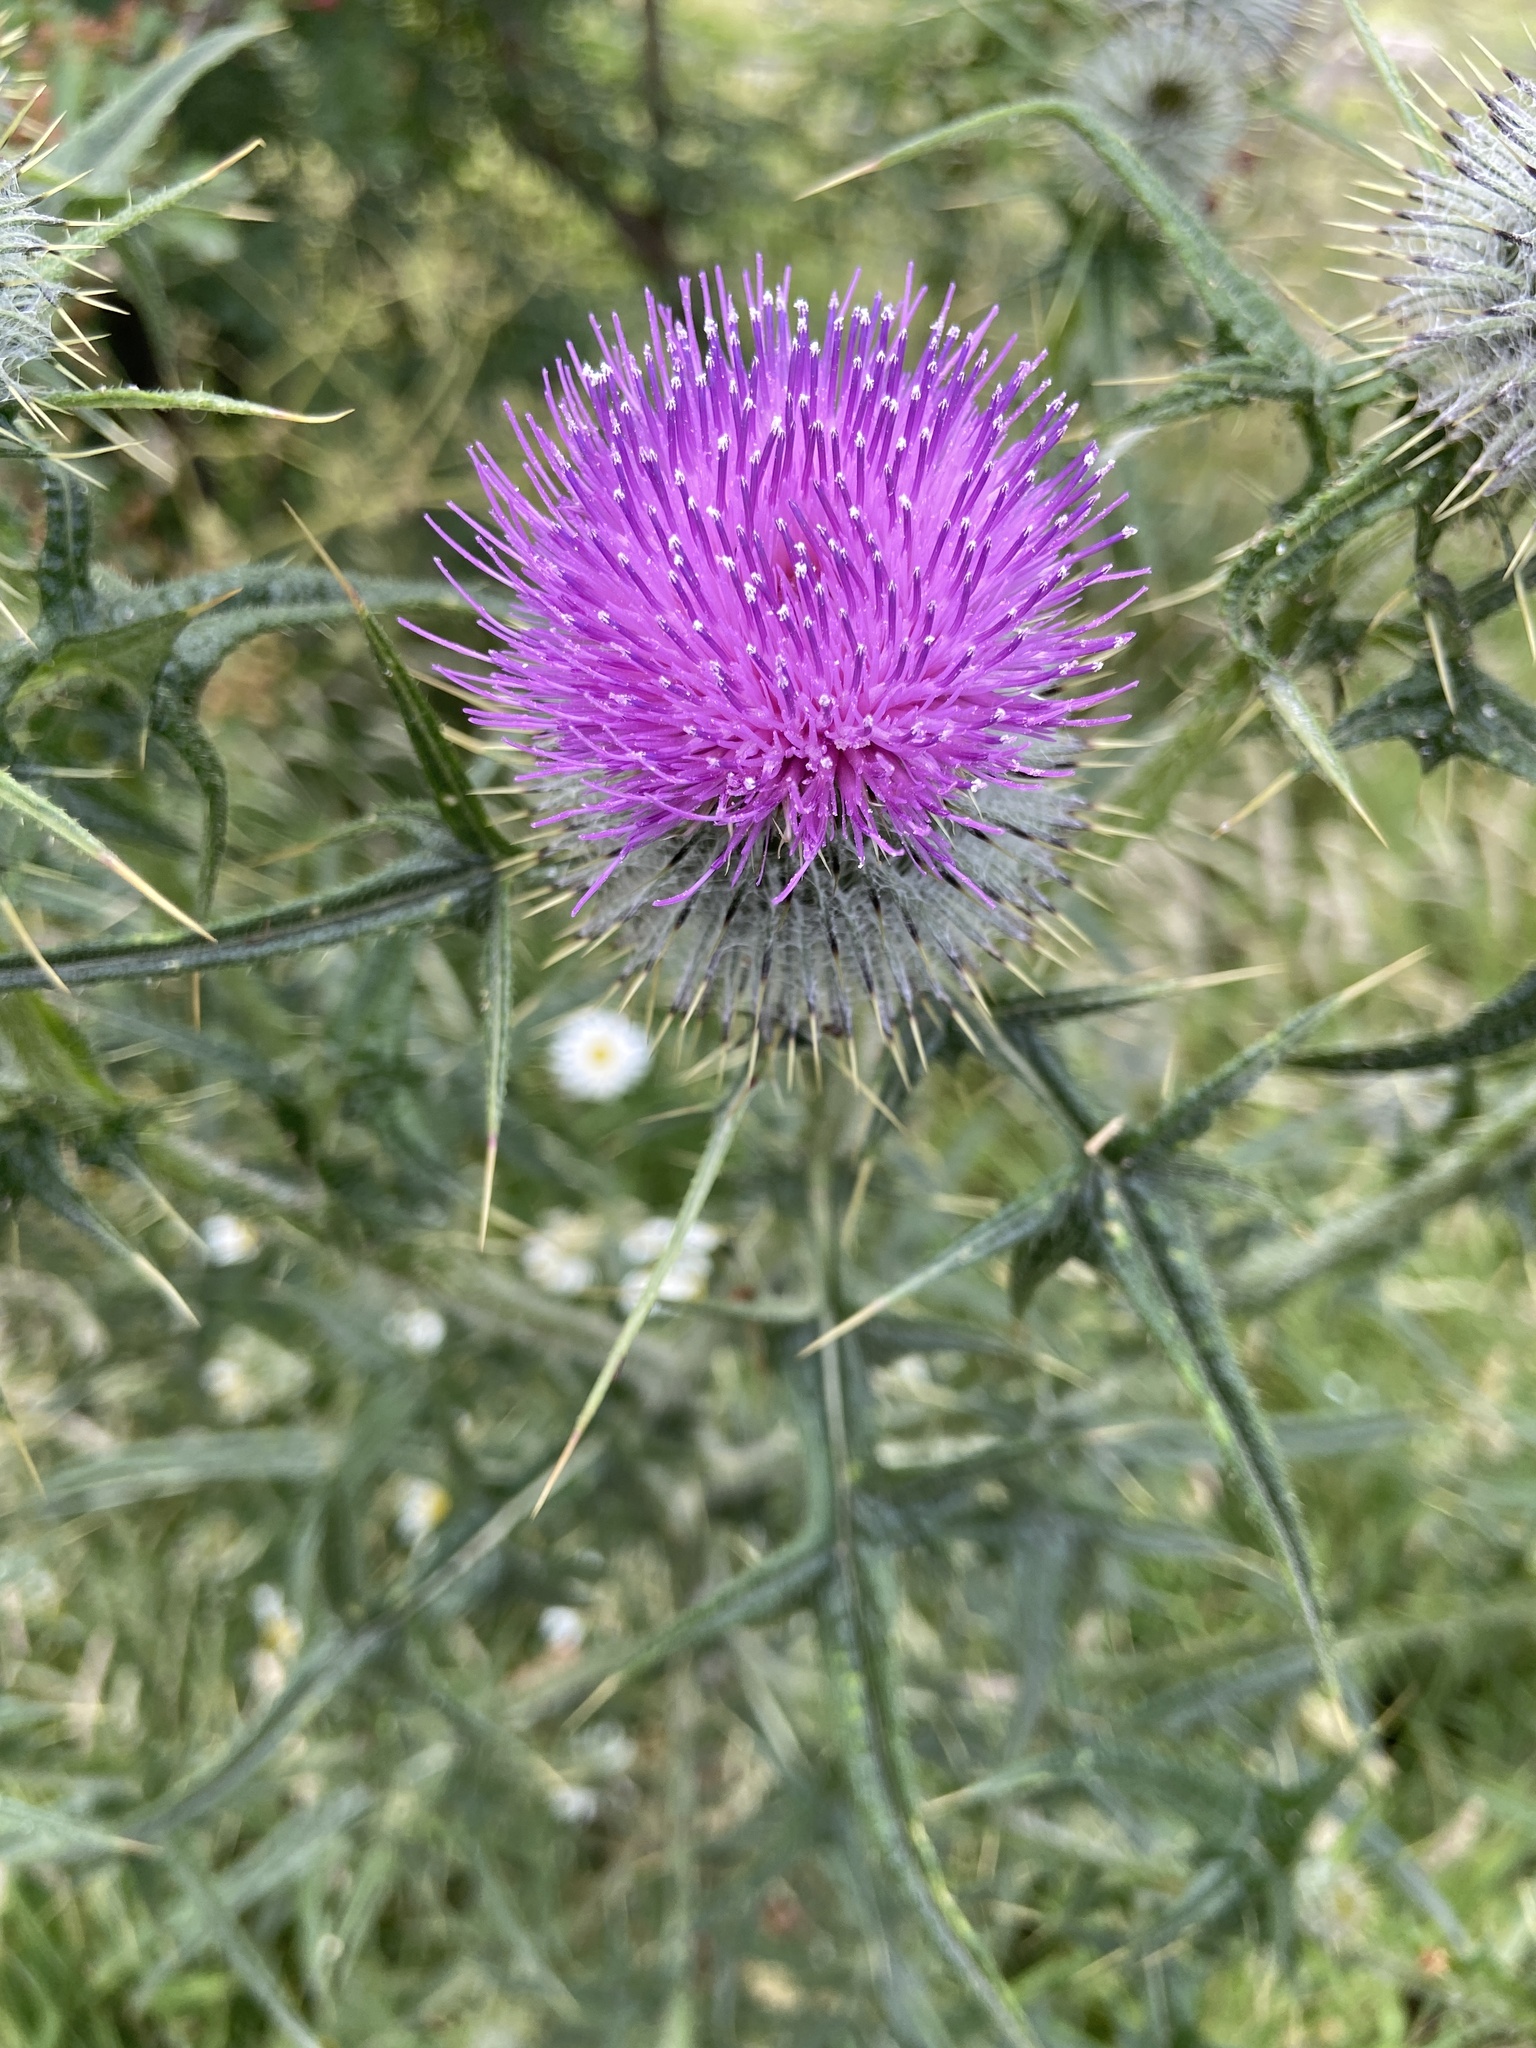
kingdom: Plantae
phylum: Tracheophyta
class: Magnoliopsida
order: Asterales
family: Asteraceae
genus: Cirsium
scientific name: Cirsium vulgare
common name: Bull thistle
